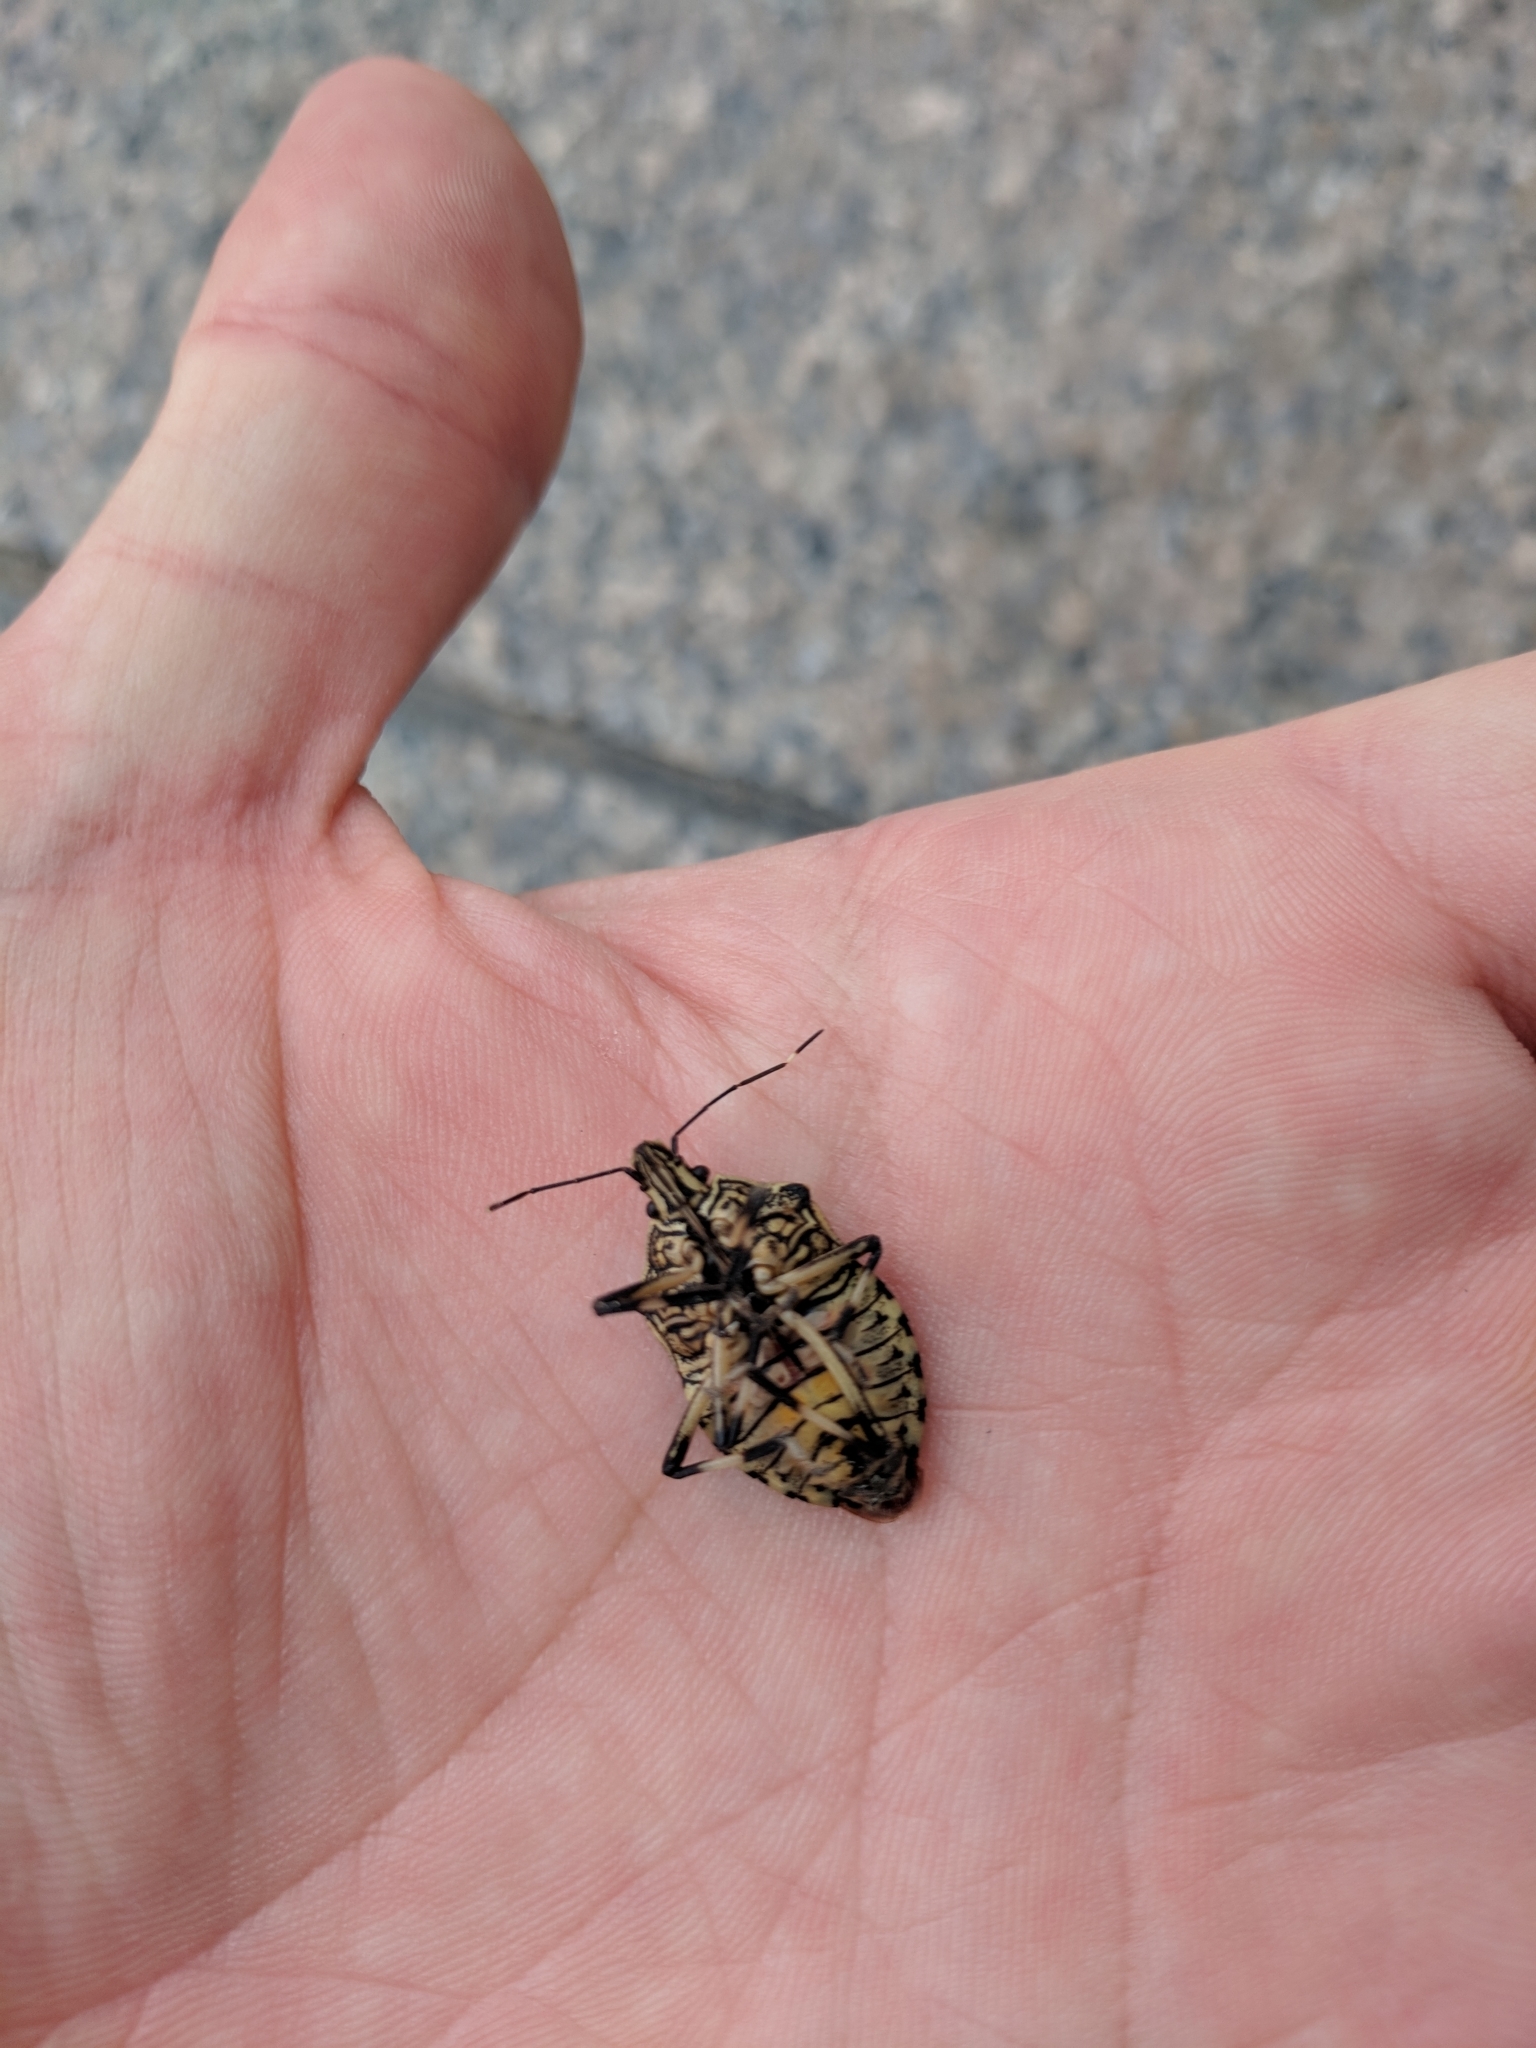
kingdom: Animalia
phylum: Arthropoda
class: Insecta
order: Hemiptera
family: Pentatomidae
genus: Erthesina
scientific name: Erthesina fullo
